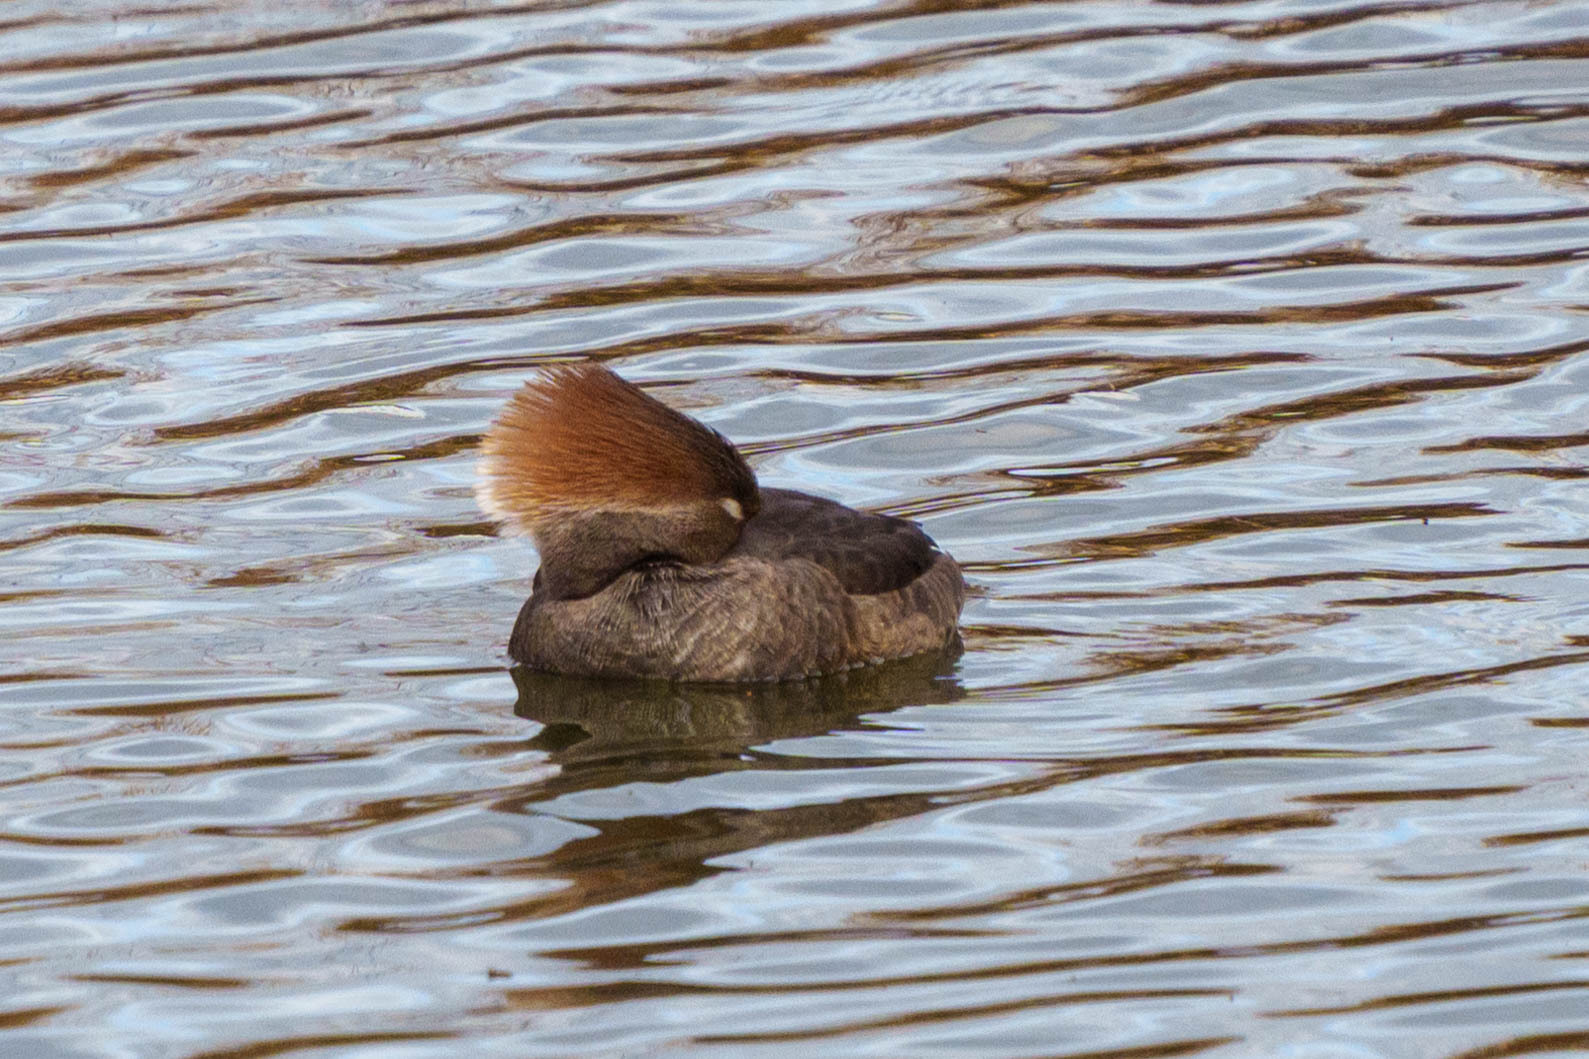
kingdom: Animalia
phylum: Chordata
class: Aves
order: Anseriformes
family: Anatidae
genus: Lophodytes
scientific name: Lophodytes cucullatus
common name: Hooded merganser
